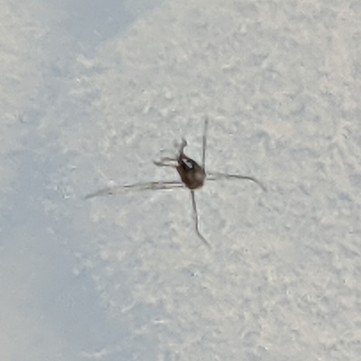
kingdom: Animalia
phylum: Arthropoda
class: Insecta
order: Hemiptera
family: Gerridae
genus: Metrobates
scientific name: Metrobates hesperius
